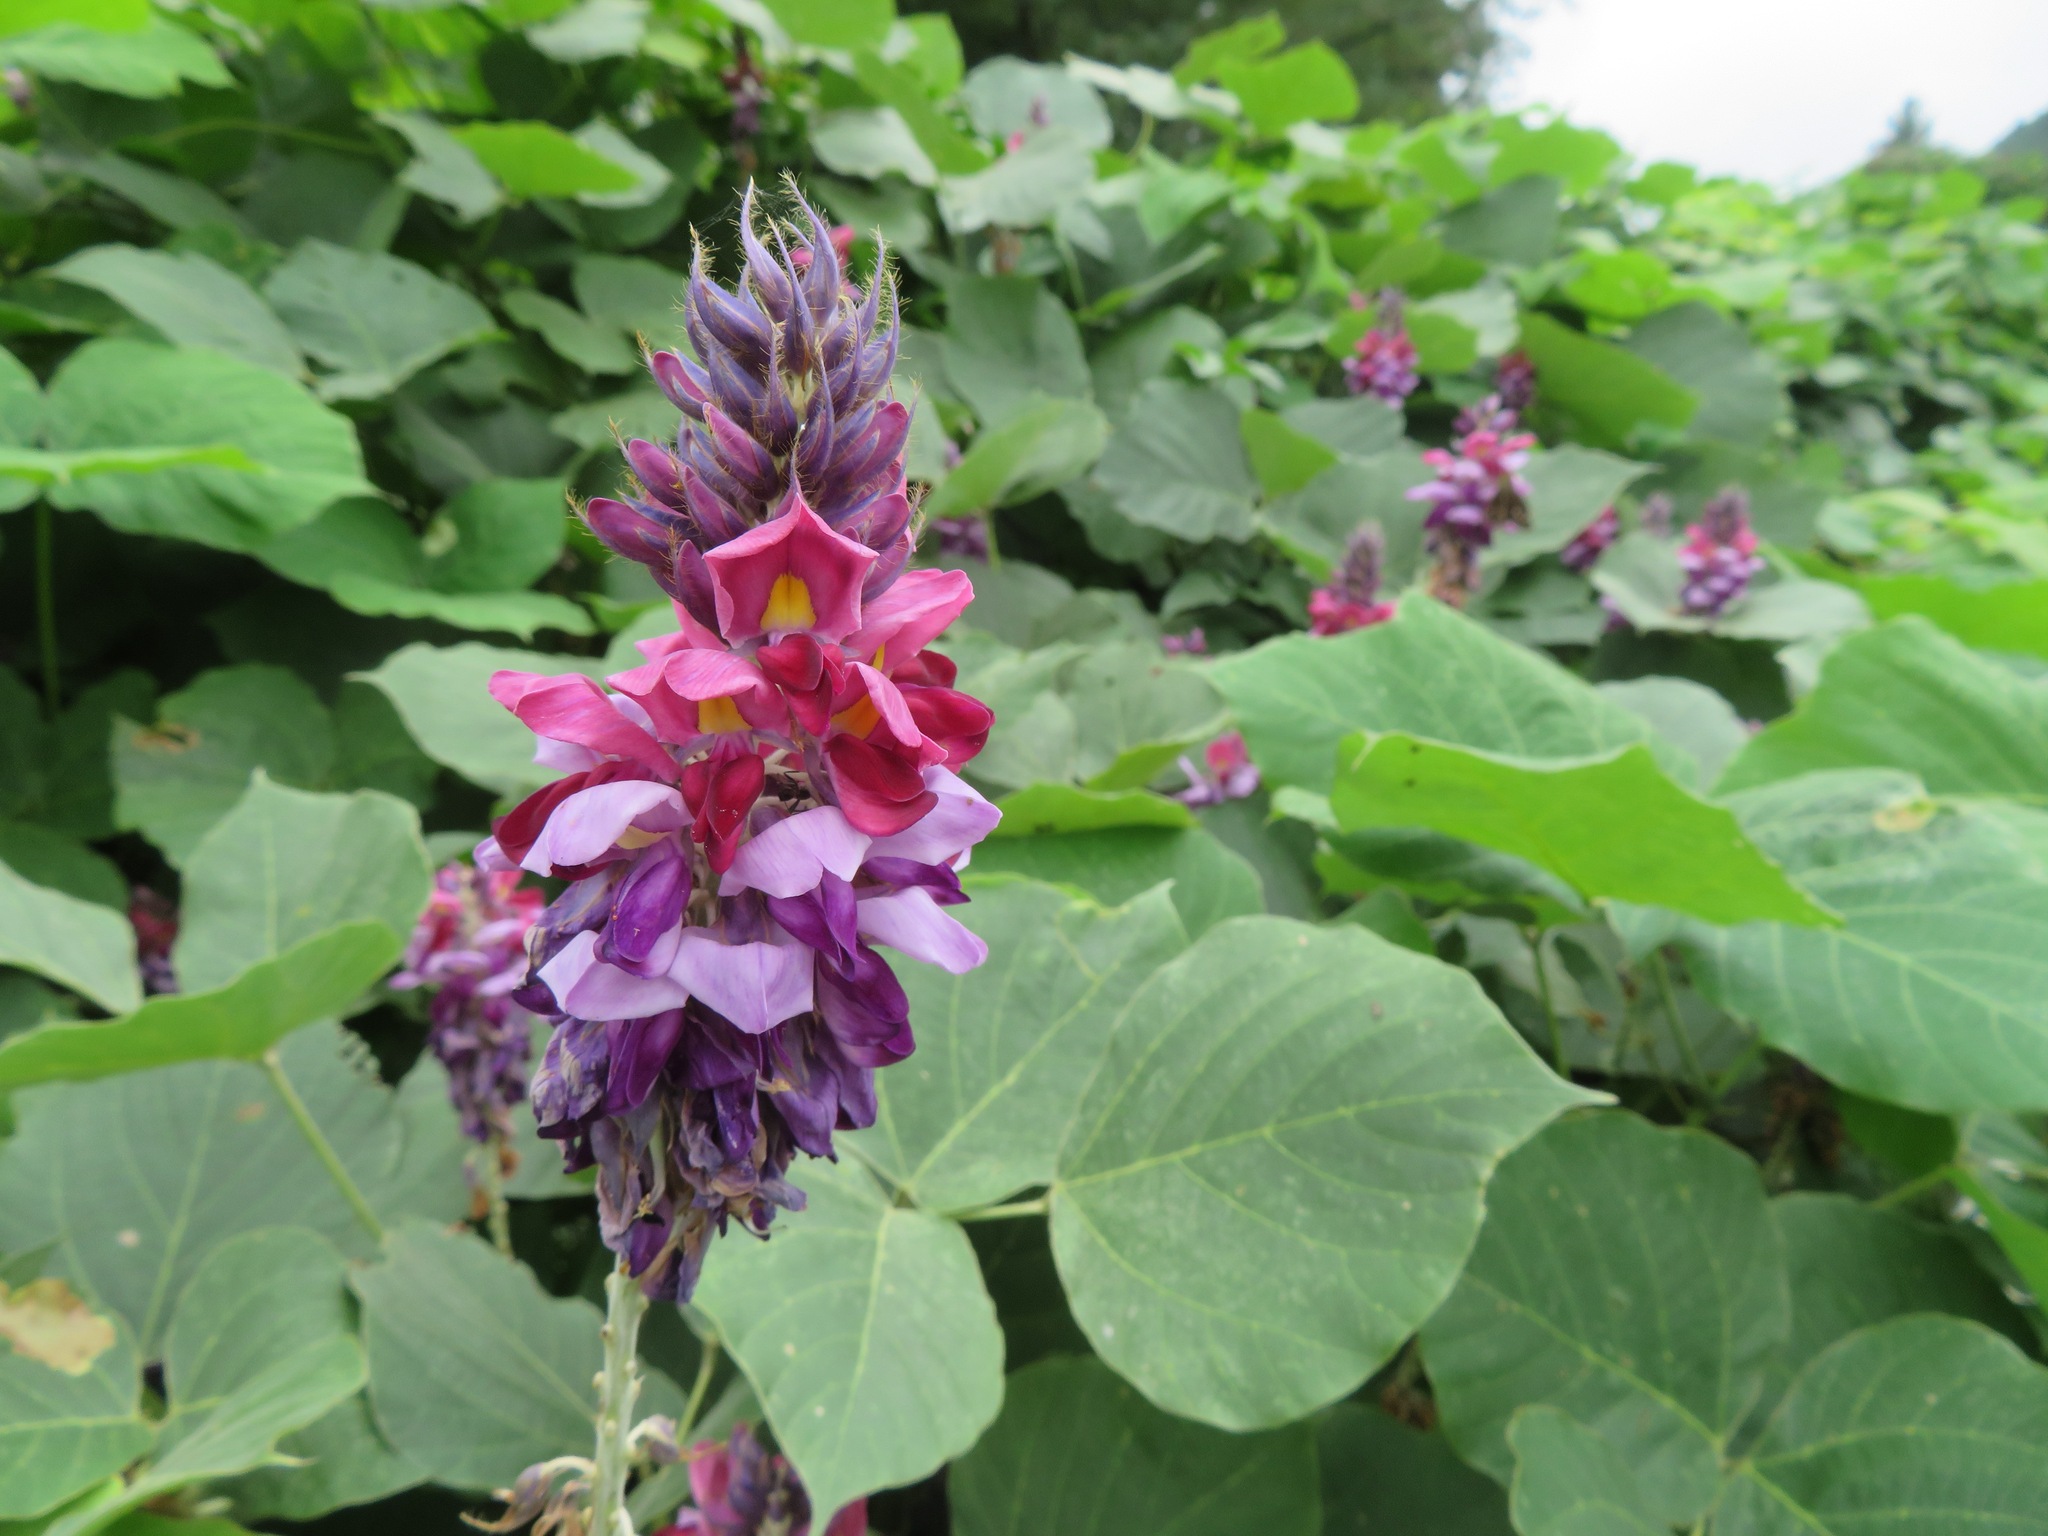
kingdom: Plantae
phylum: Tracheophyta
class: Magnoliopsida
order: Fabales
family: Fabaceae
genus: Pueraria
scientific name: Pueraria montana
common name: Kudzu
